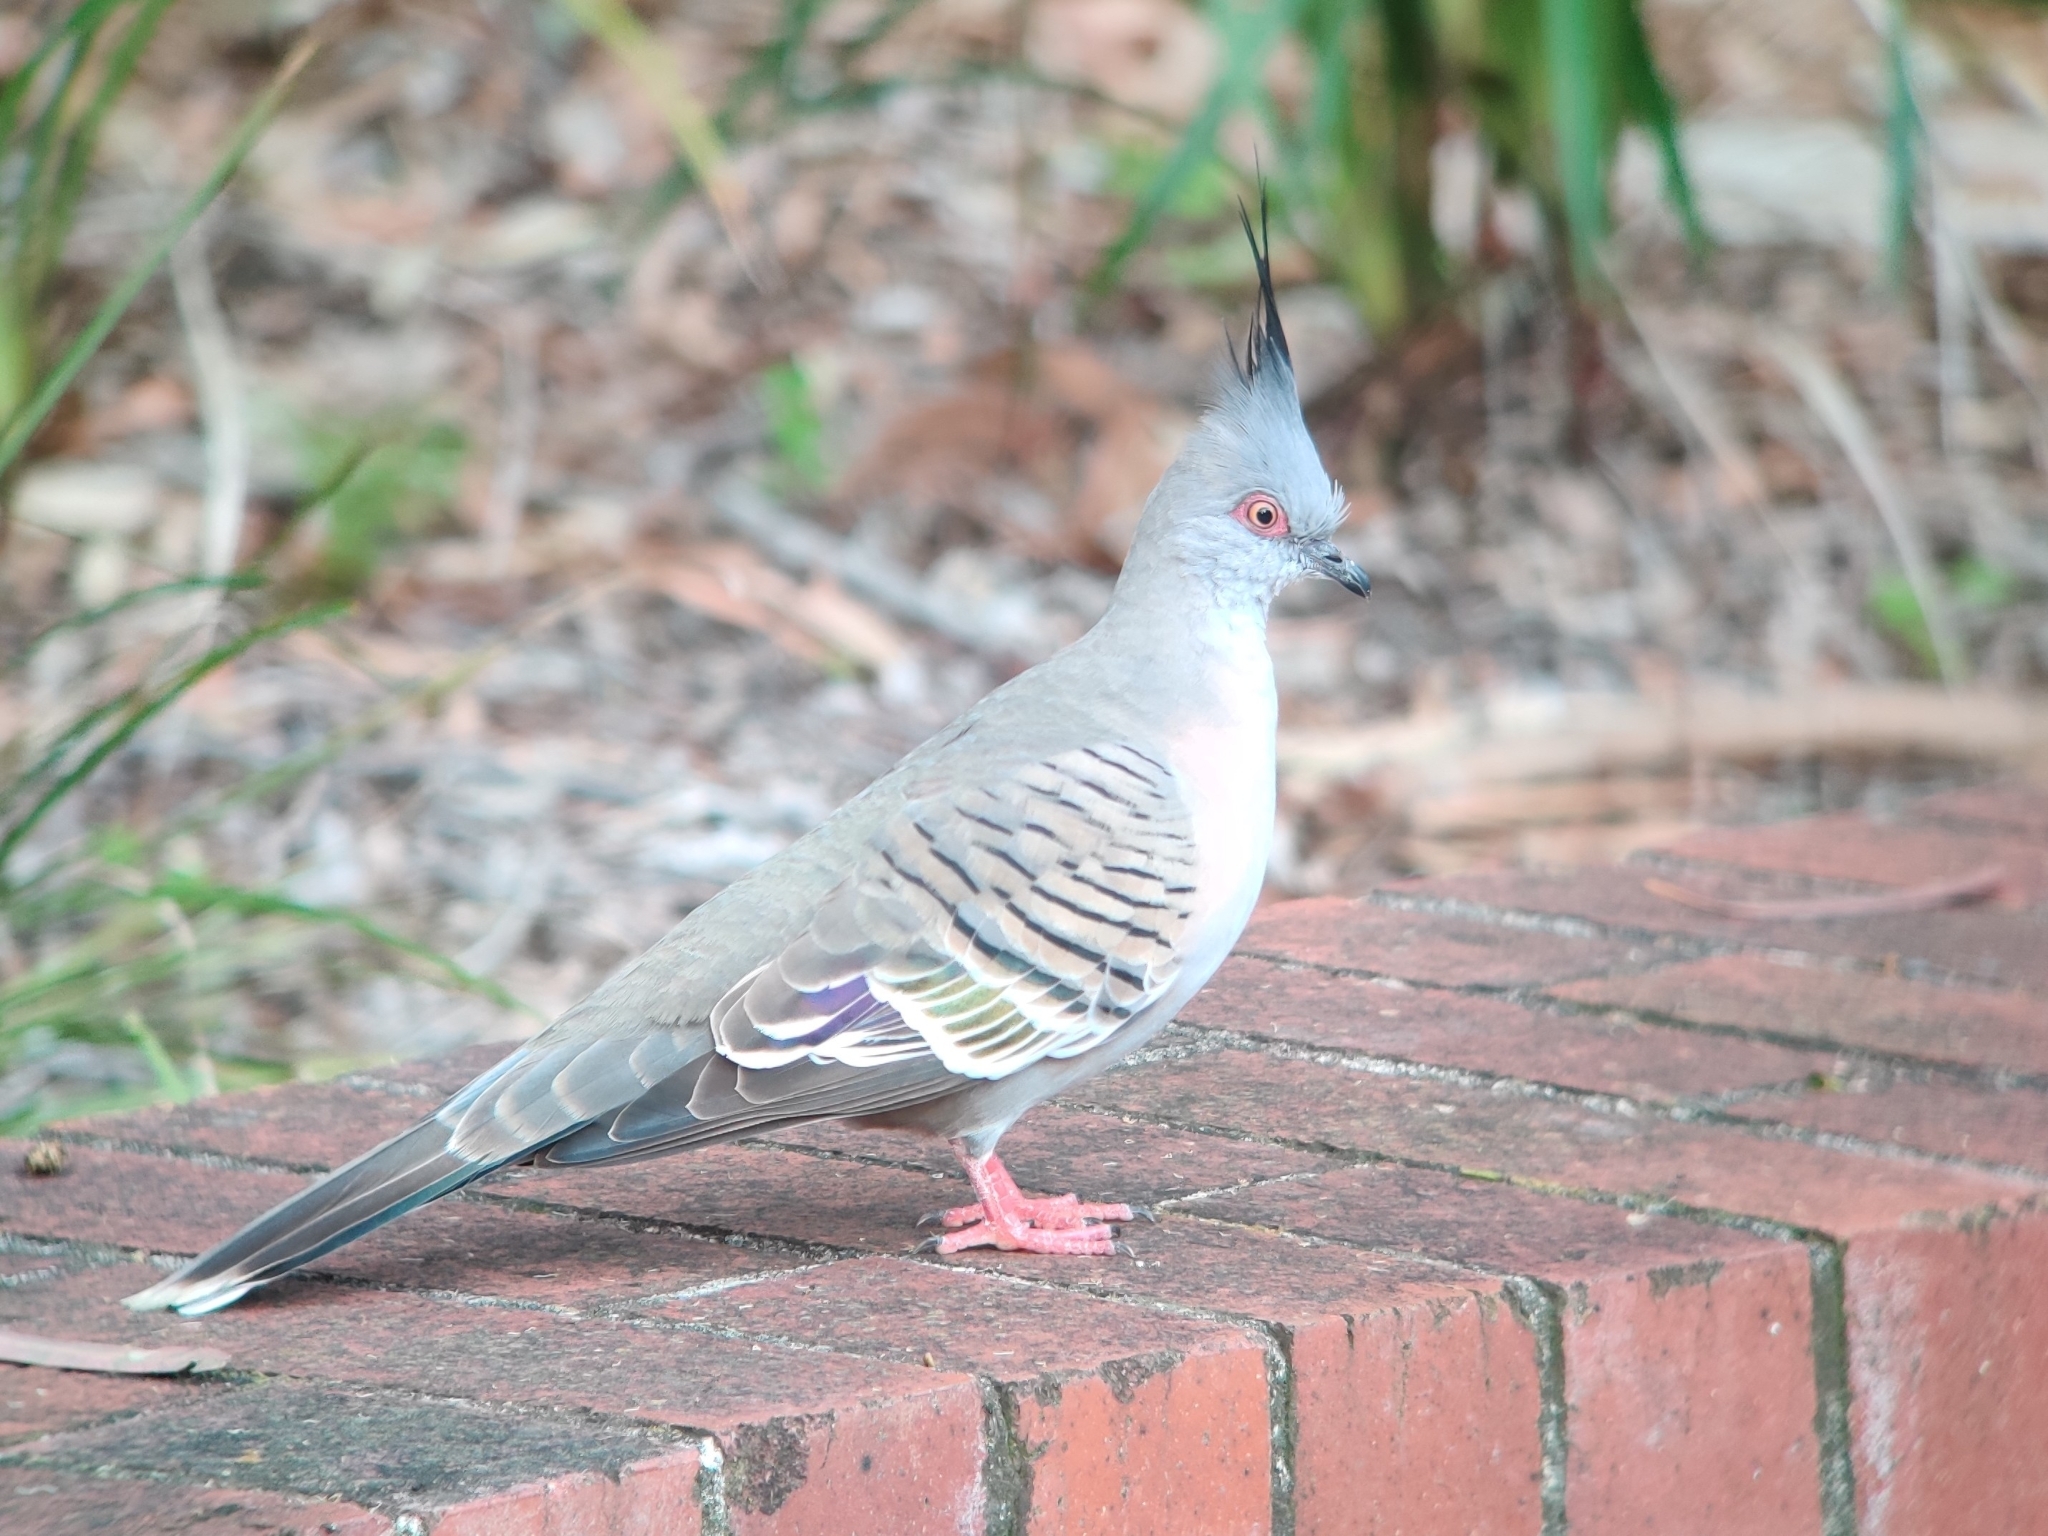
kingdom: Animalia
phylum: Chordata
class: Aves
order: Columbiformes
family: Columbidae
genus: Ocyphaps
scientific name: Ocyphaps lophotes
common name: Crested pigeon
